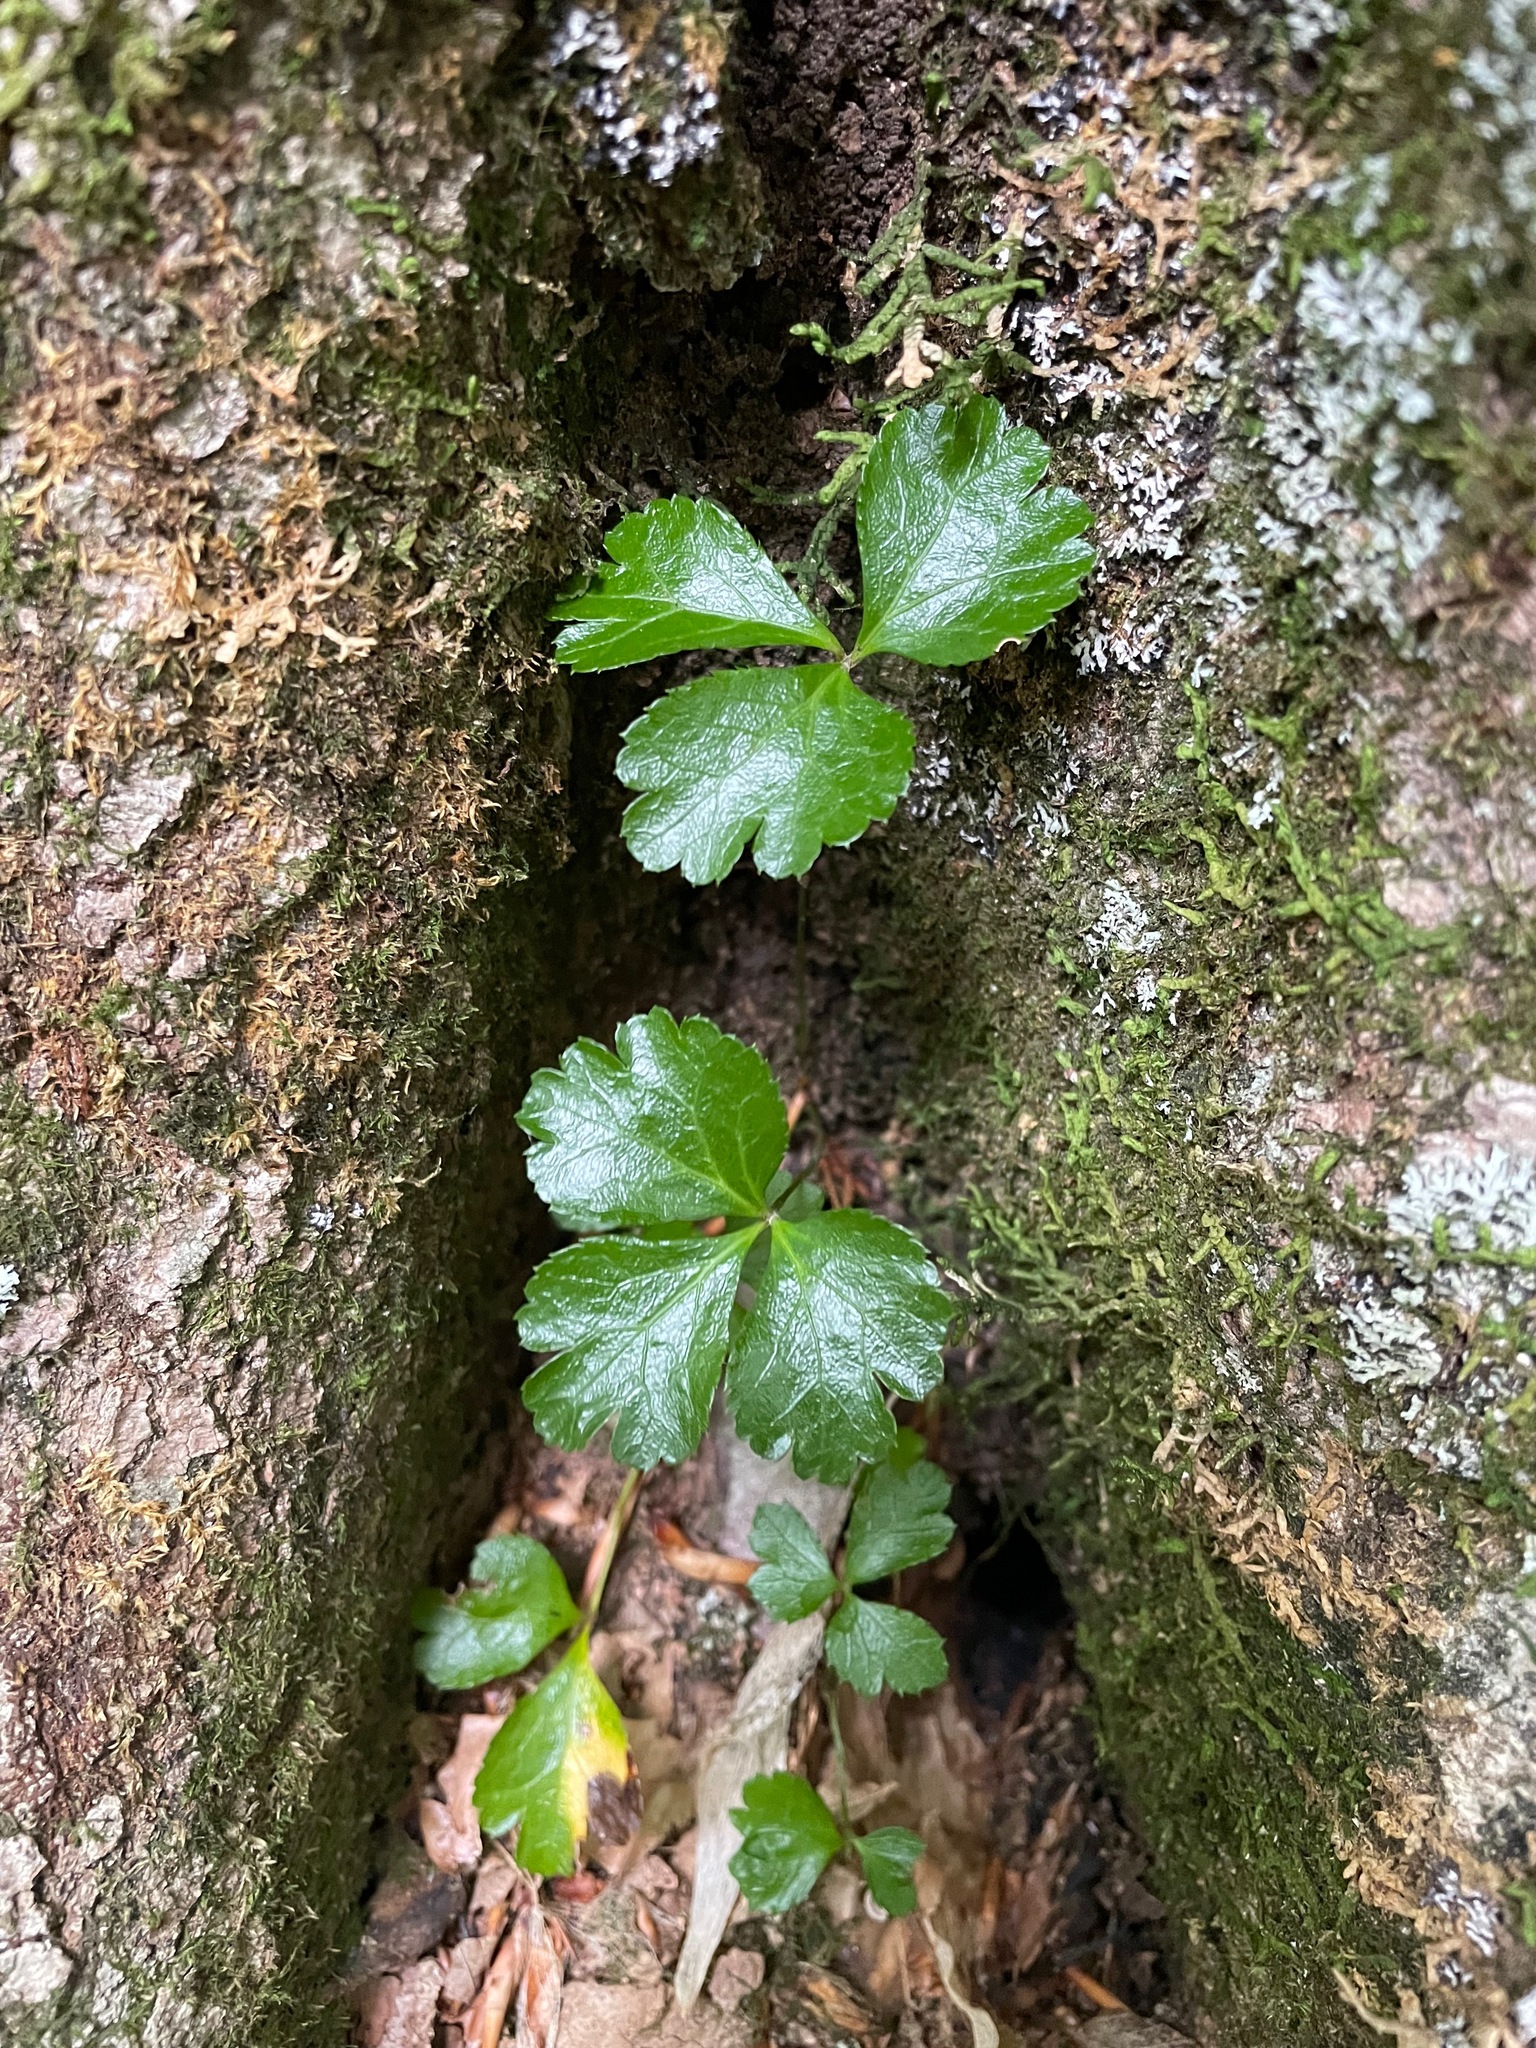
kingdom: Plantae
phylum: Tracheophyta
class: Magnoliopsida
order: Ranunculales
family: Ranunculaceae
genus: Coptis
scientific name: Coptis trifolia
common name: Canker-root
